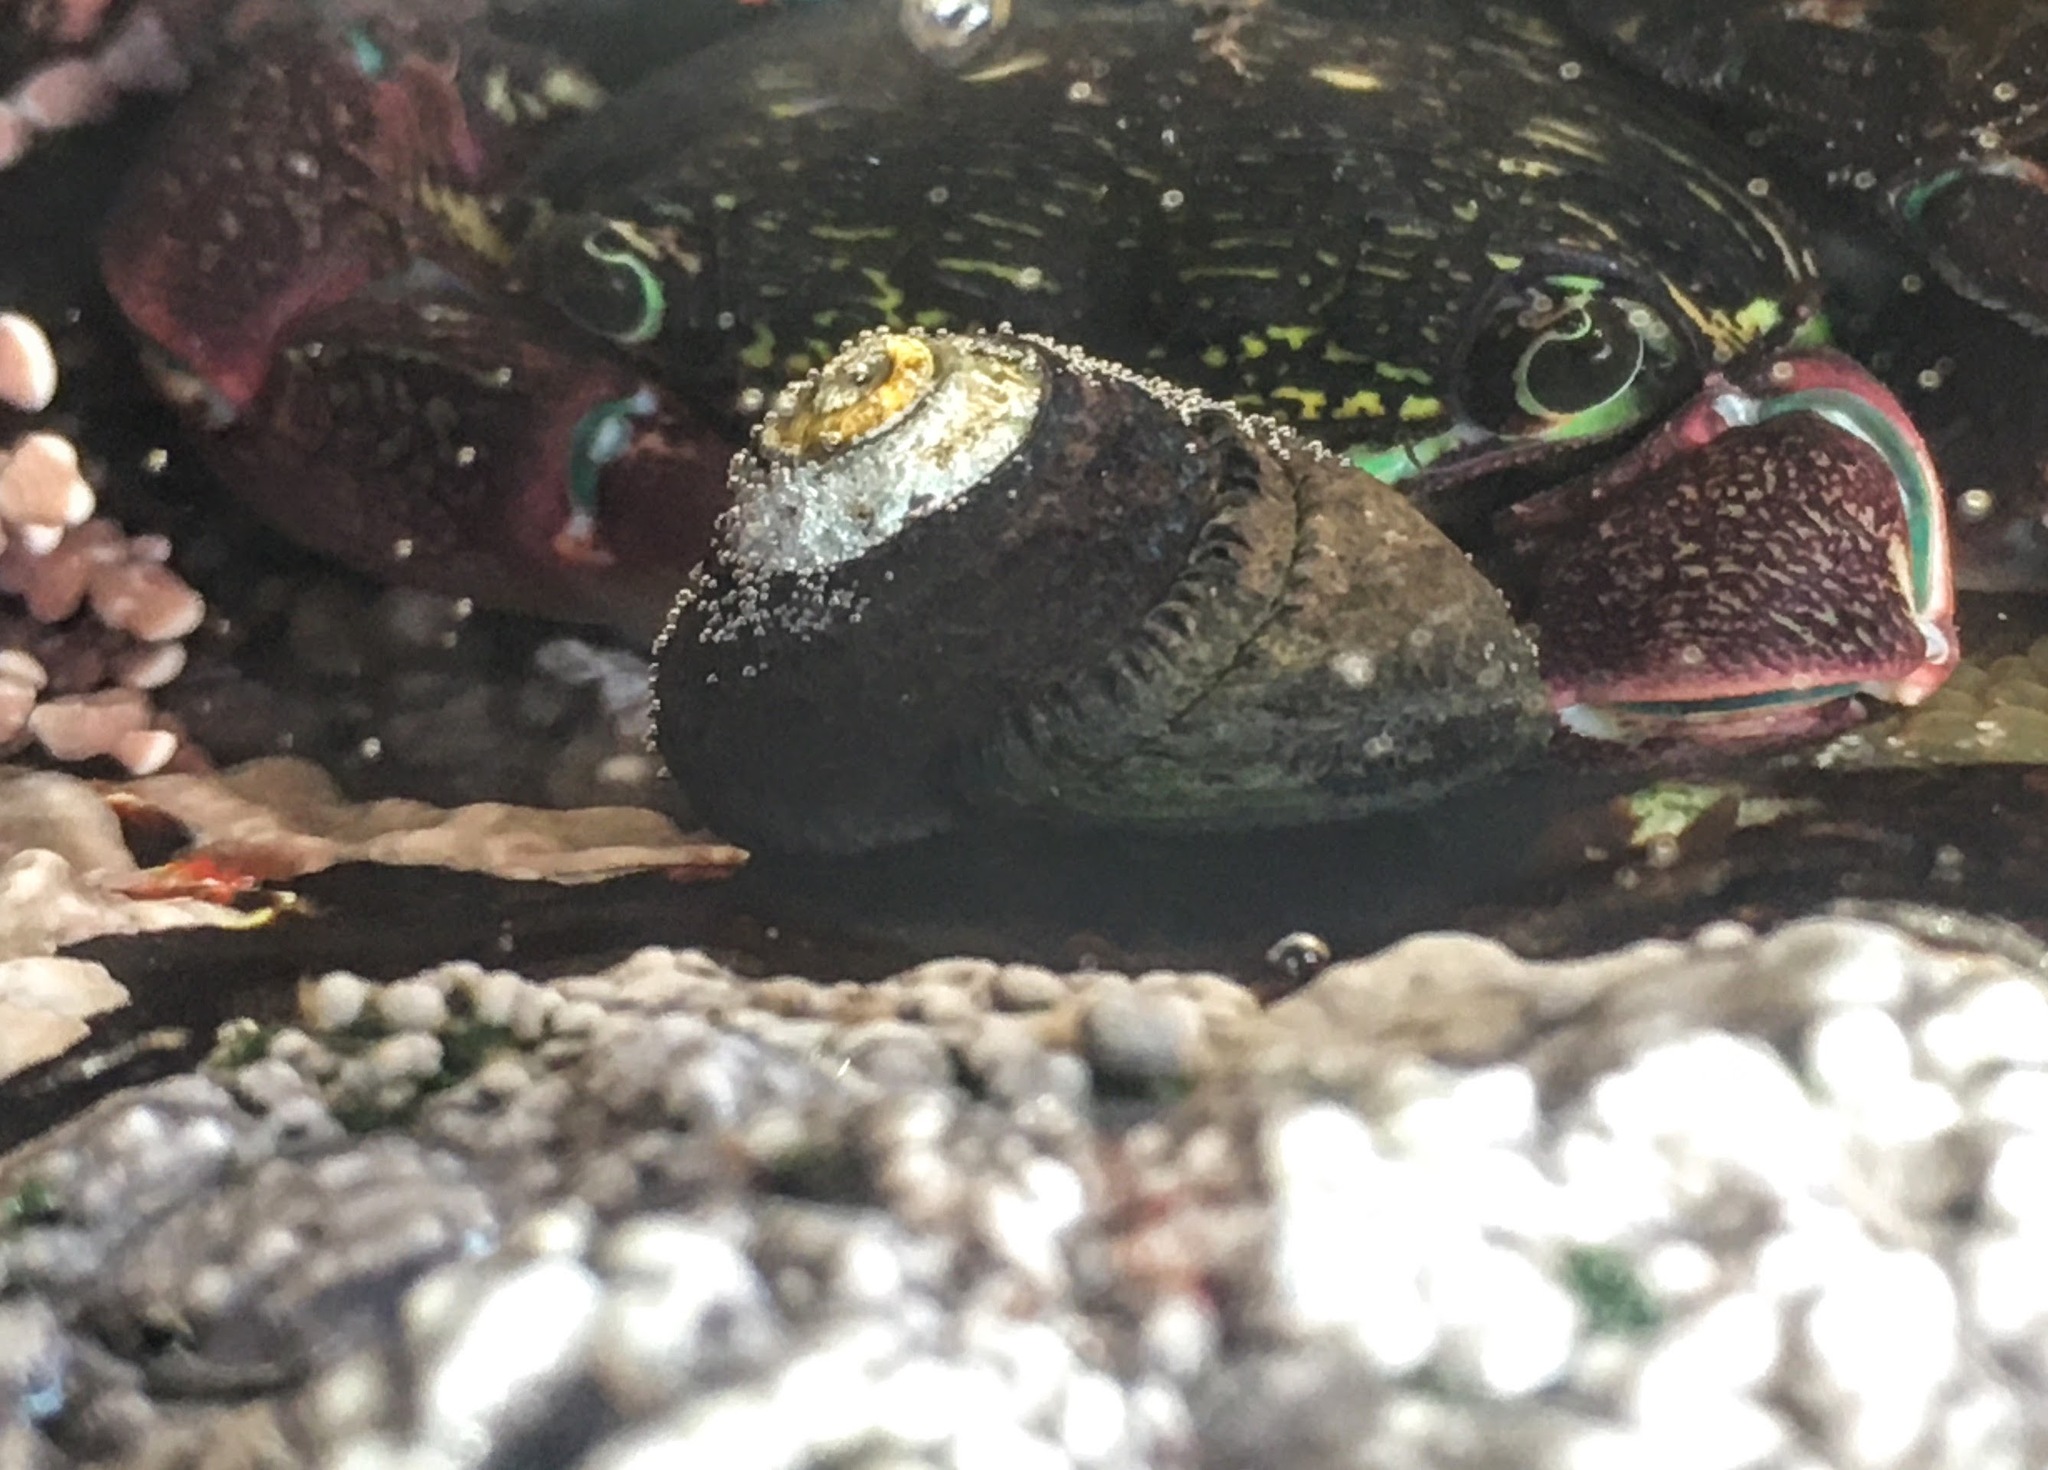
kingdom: Animalia
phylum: Mollusca
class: Gastropoda
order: Trochida
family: Tegulidae
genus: Tegula
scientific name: Tegula funebralis
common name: Black tegula
